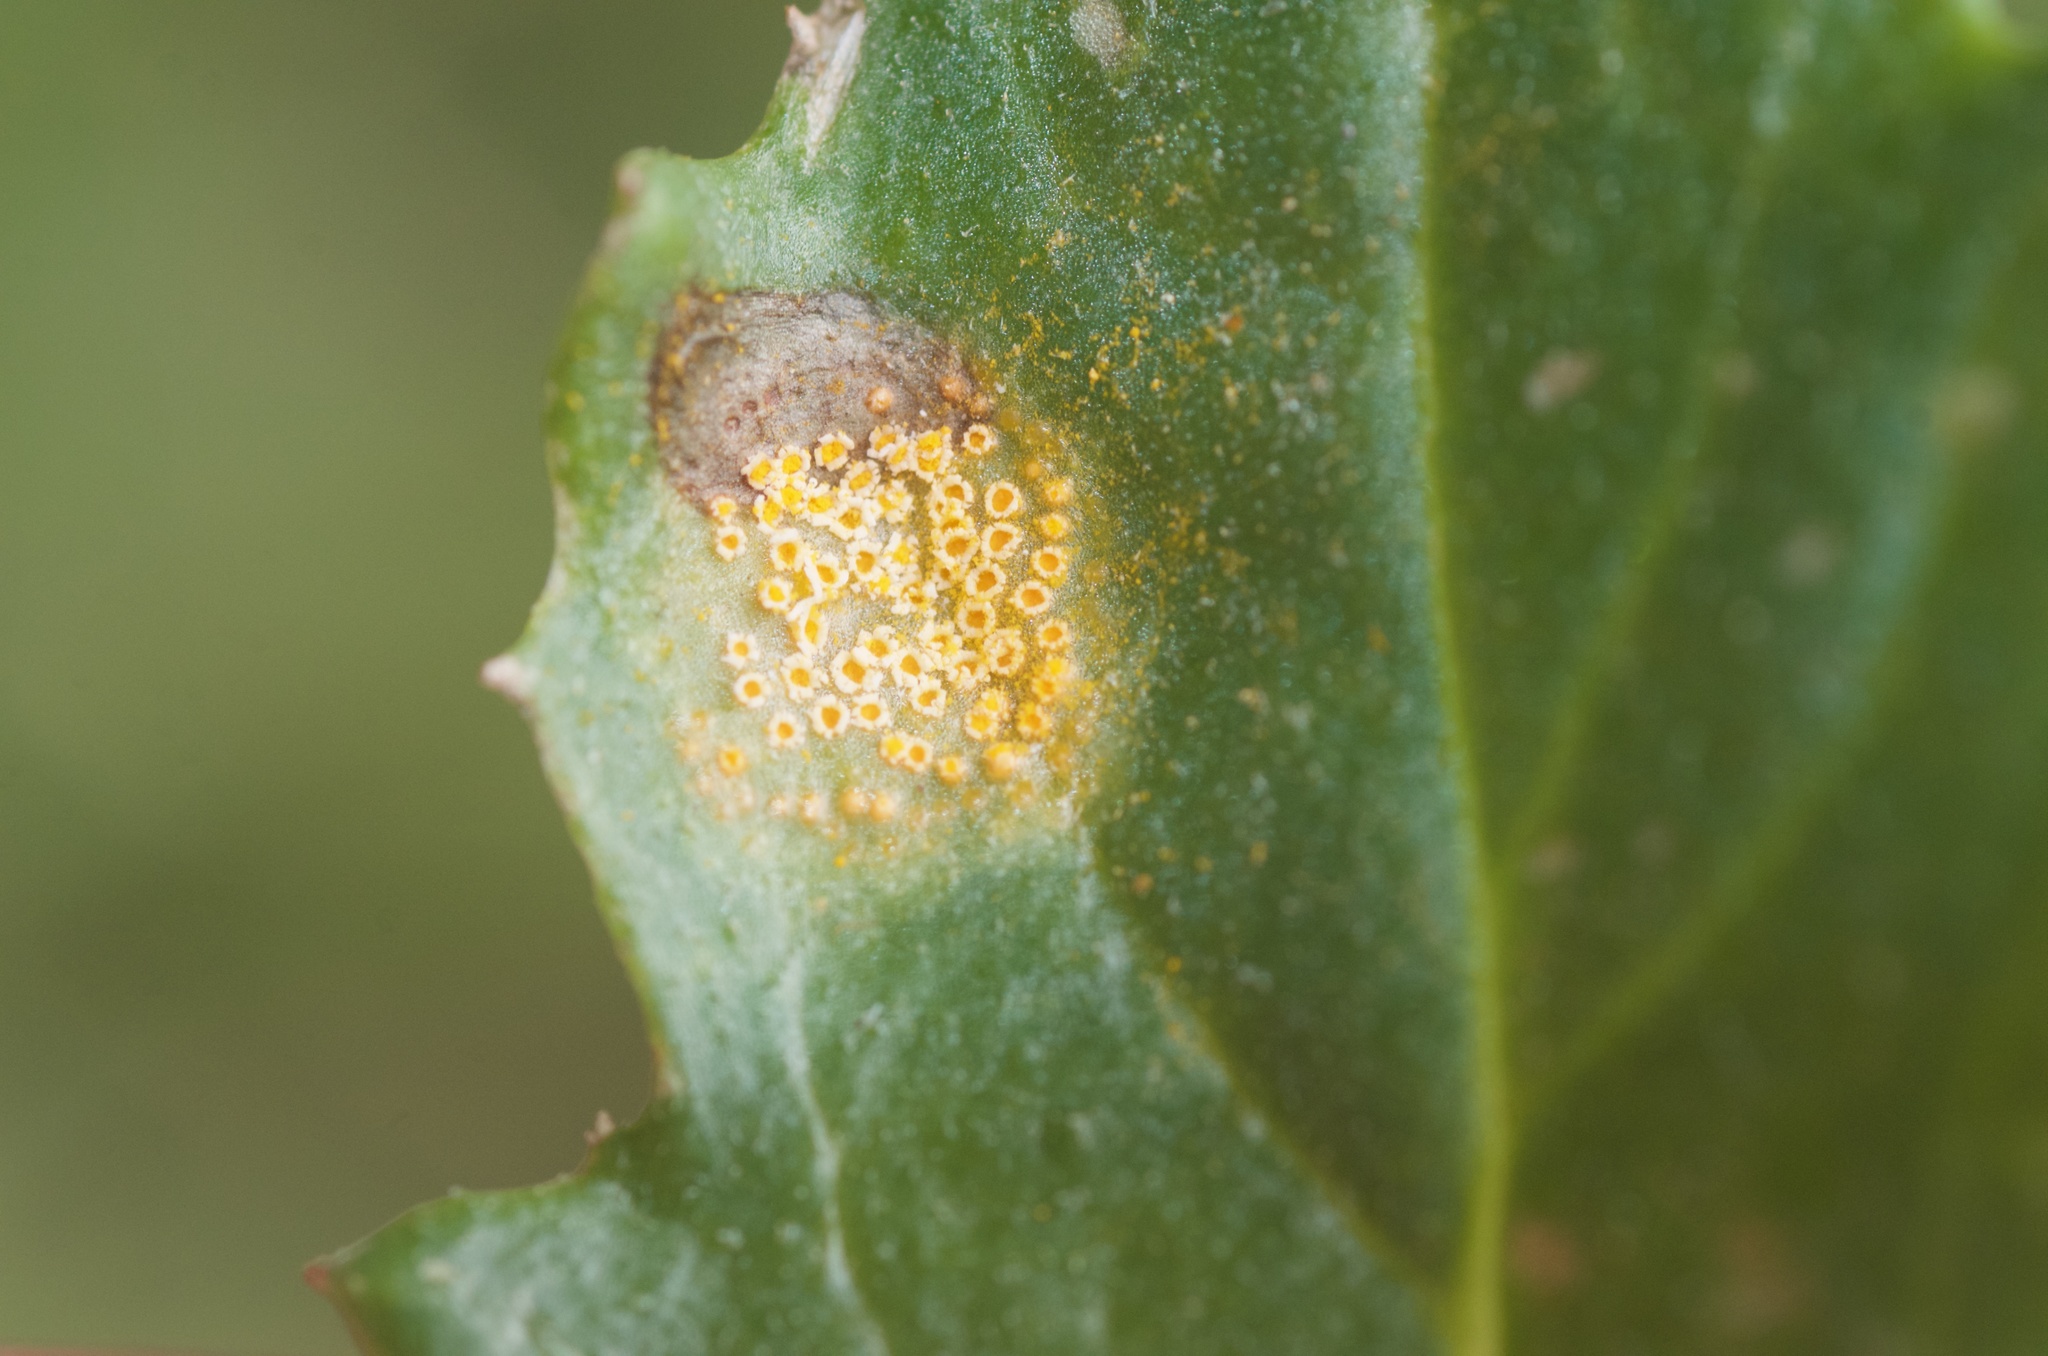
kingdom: Fungi
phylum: Basidiomycota
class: Pucciniomycetes
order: Pucciniales
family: Pucciniaceae
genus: Puccinia
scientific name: Puccinia lagenophorae
